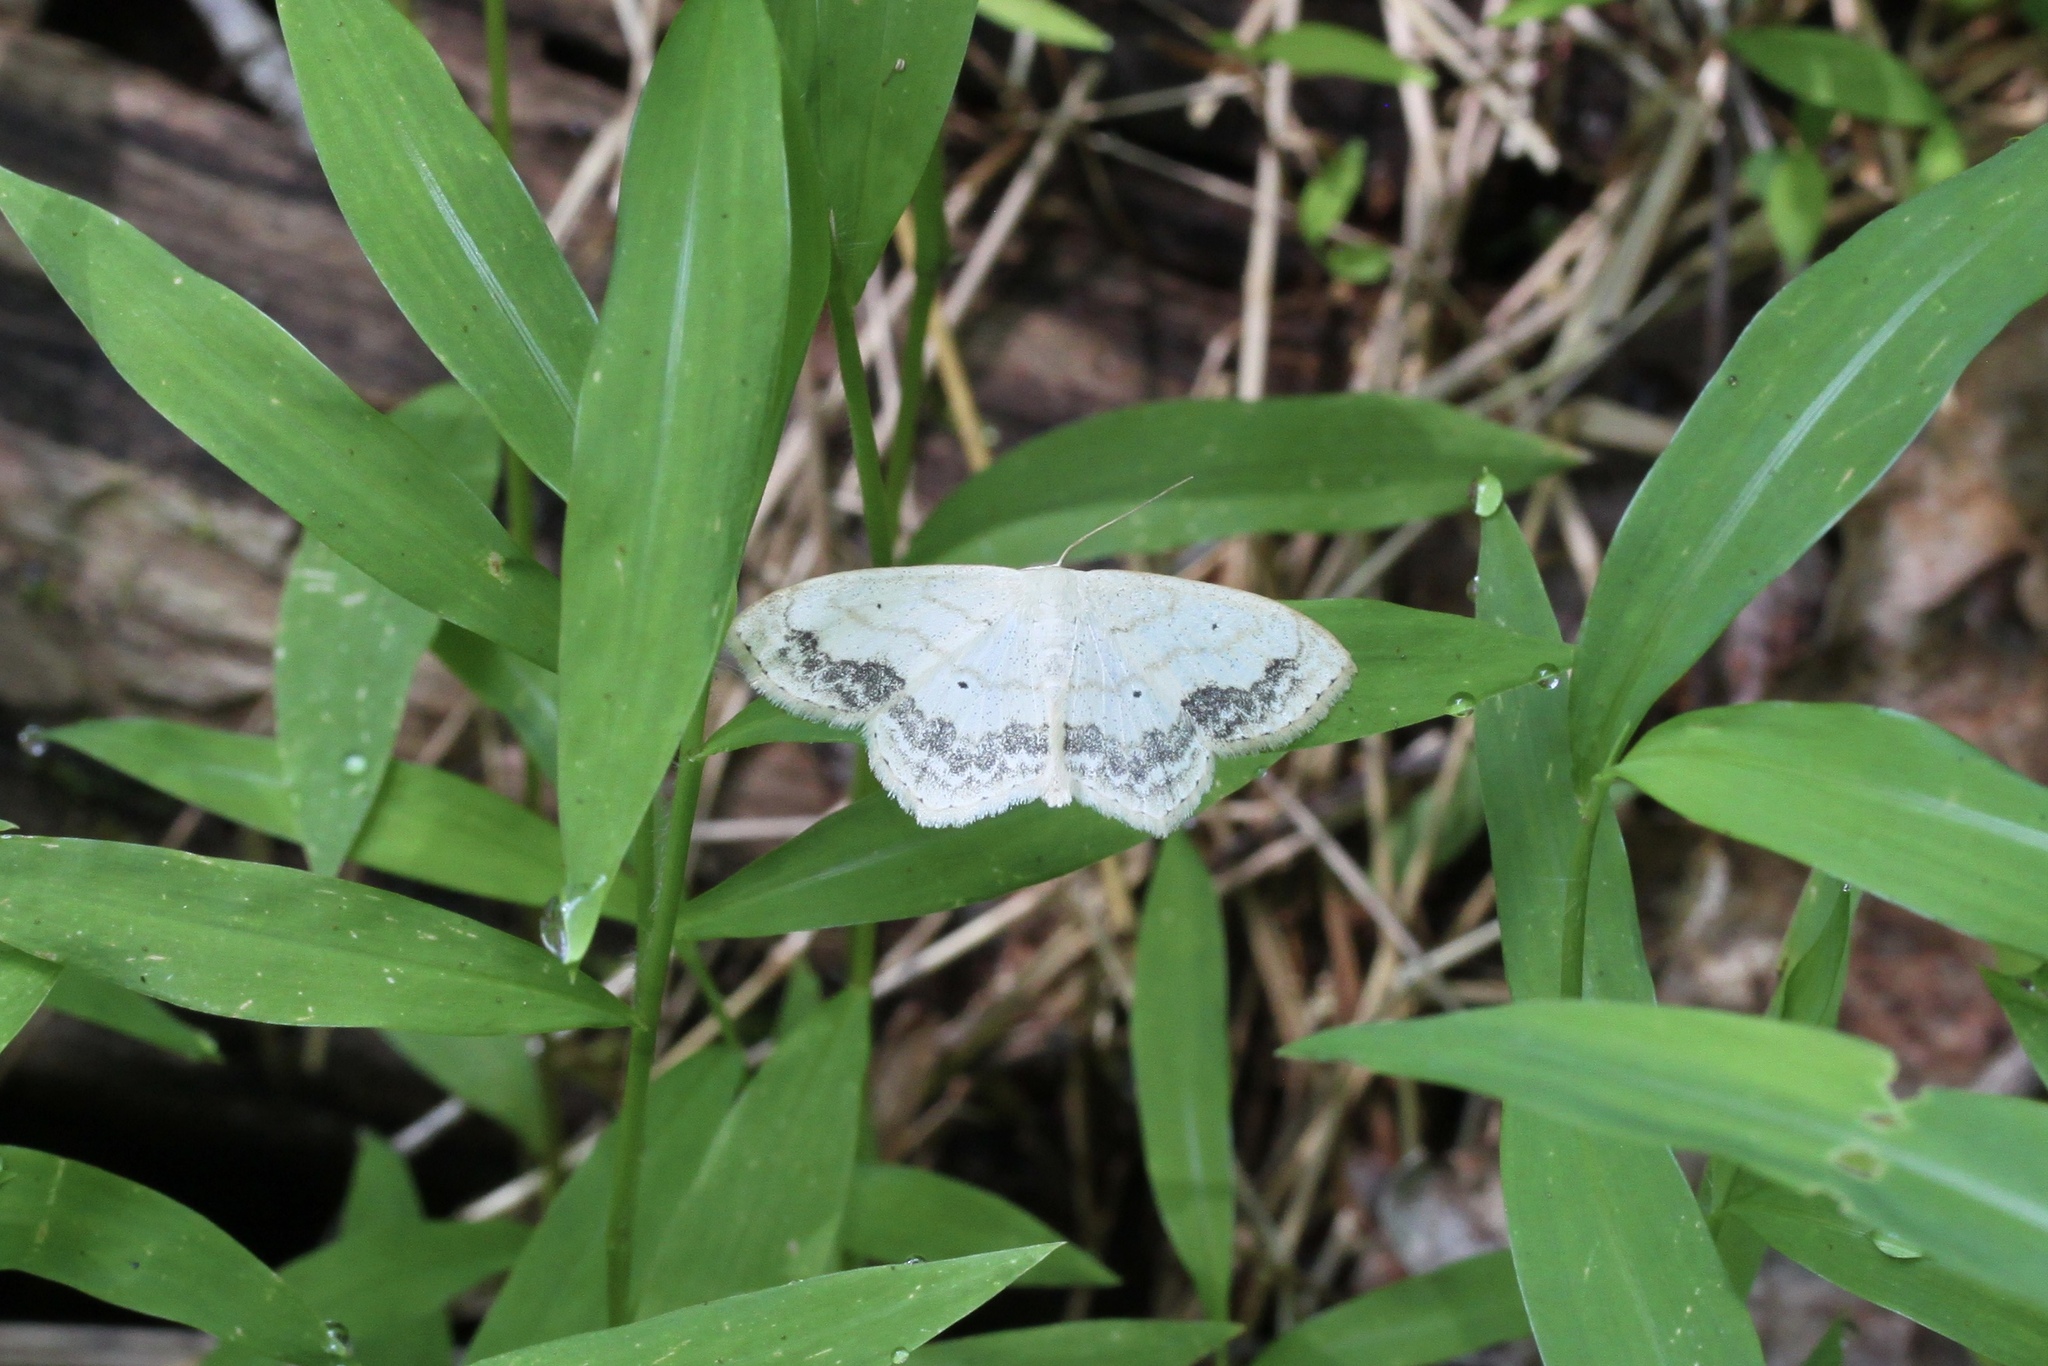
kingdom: Animalia
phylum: Arthropoda
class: Insecta
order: Lepidoptera
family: Geometridae
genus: Scopula
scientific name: Scopula limboundata
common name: Large lace border
